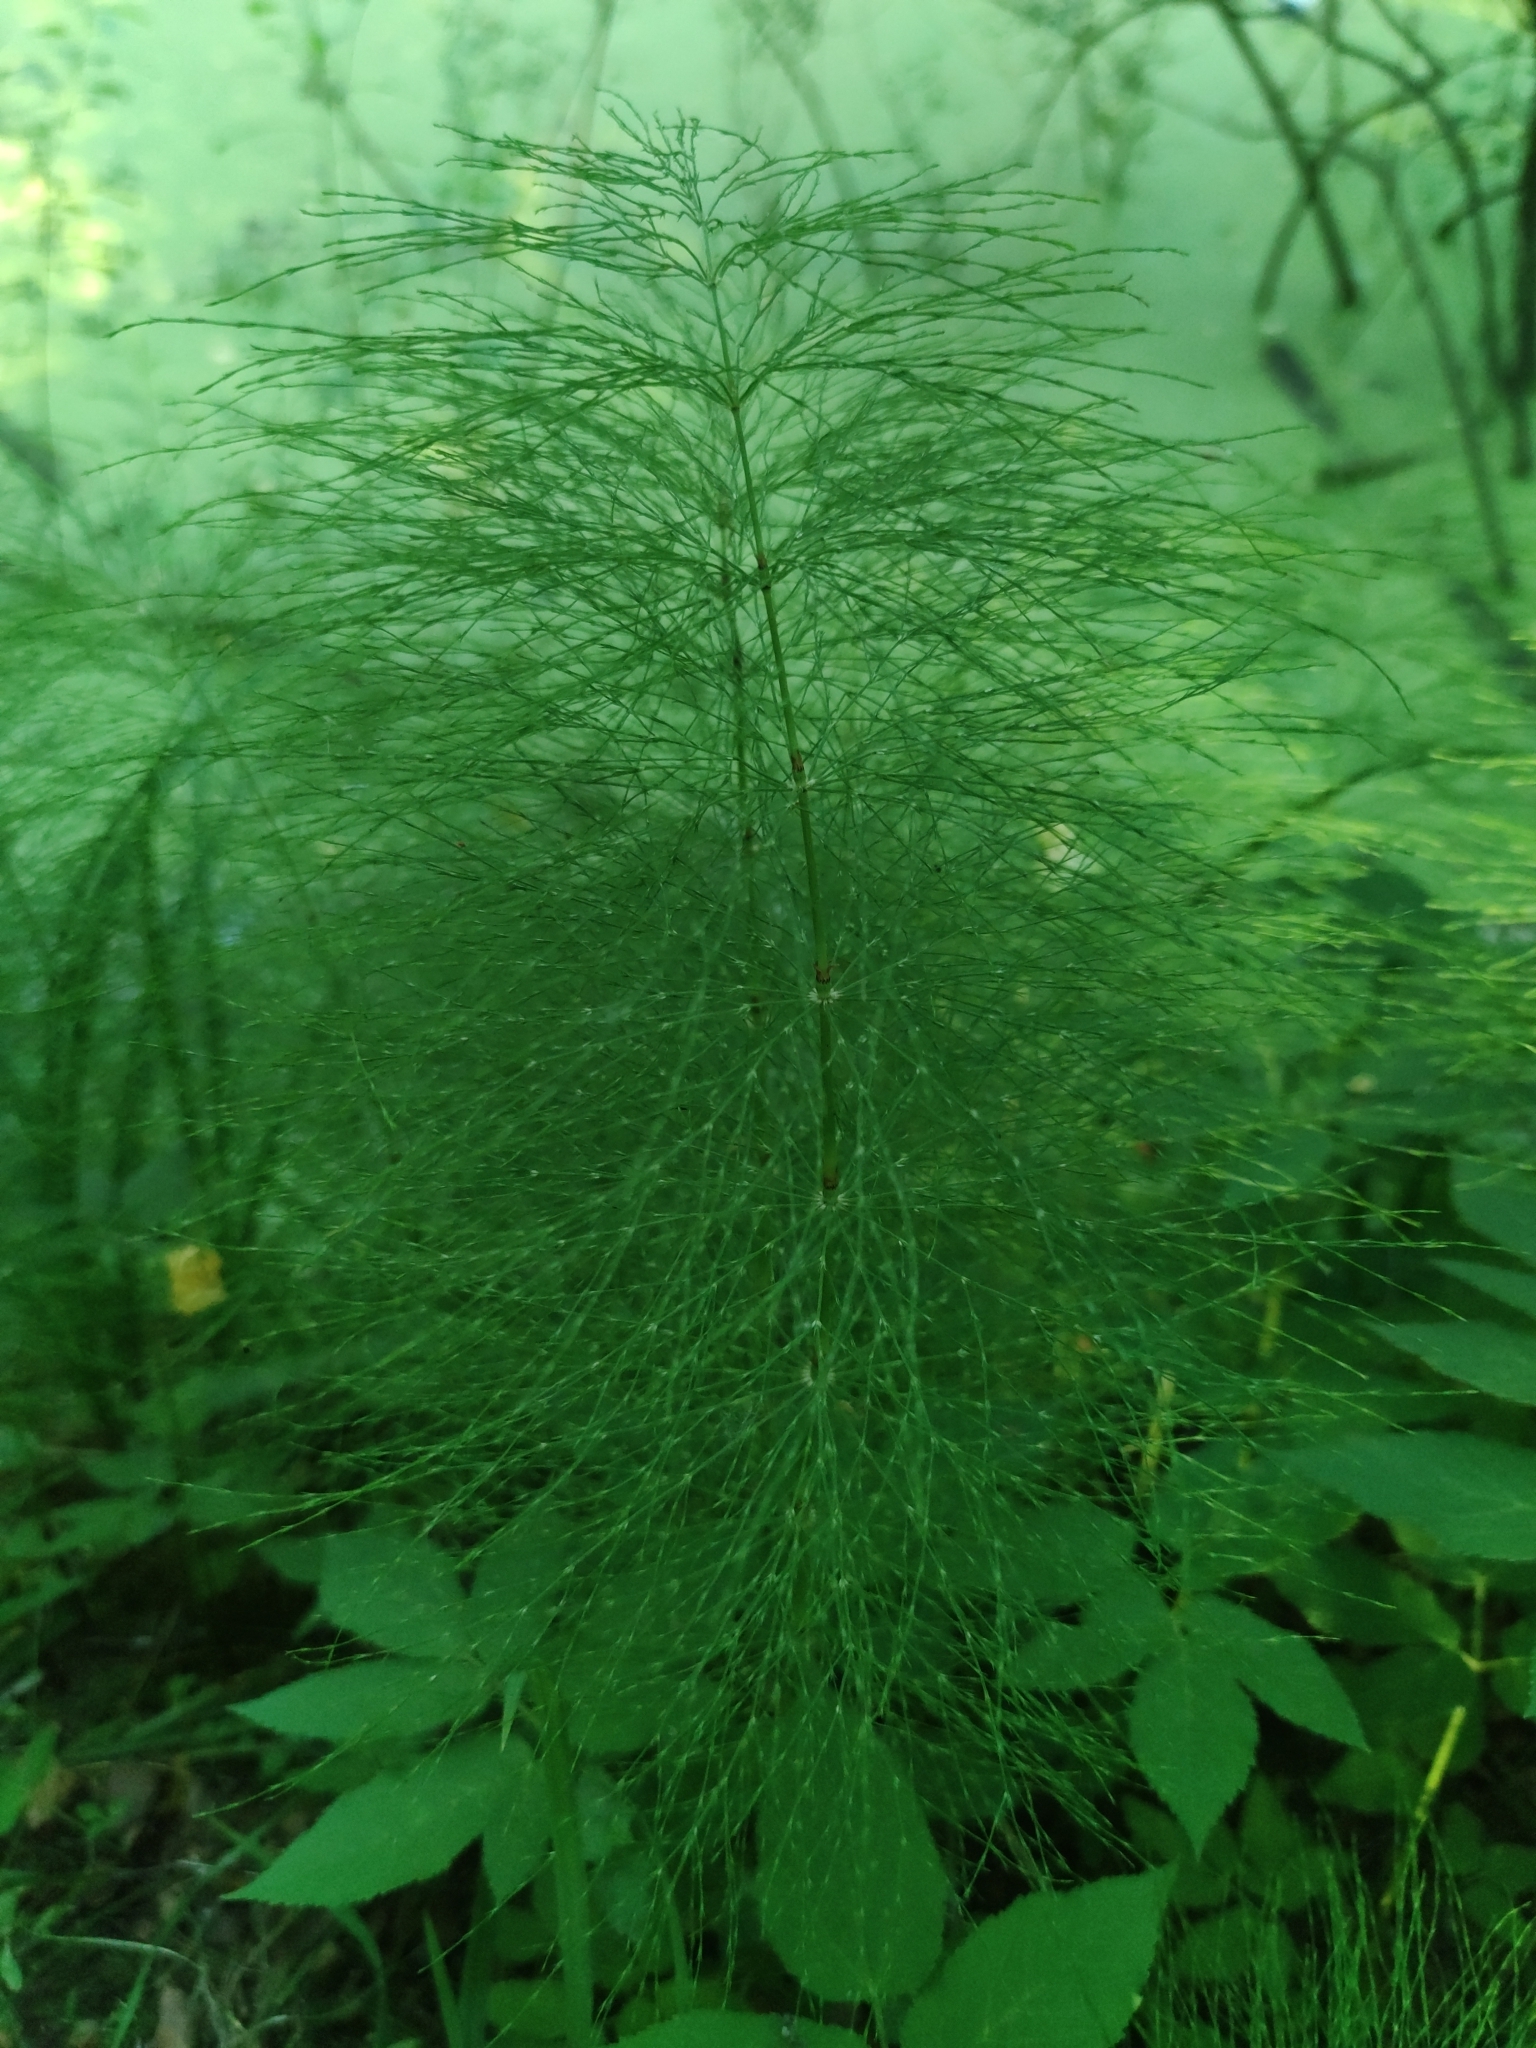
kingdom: Plantae
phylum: Tracheophyta
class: Polypodiopsida
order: Equisetales
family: Equisetaceae
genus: Equisetum
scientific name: Equisetum sylvaticum
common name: Wood horsetail
